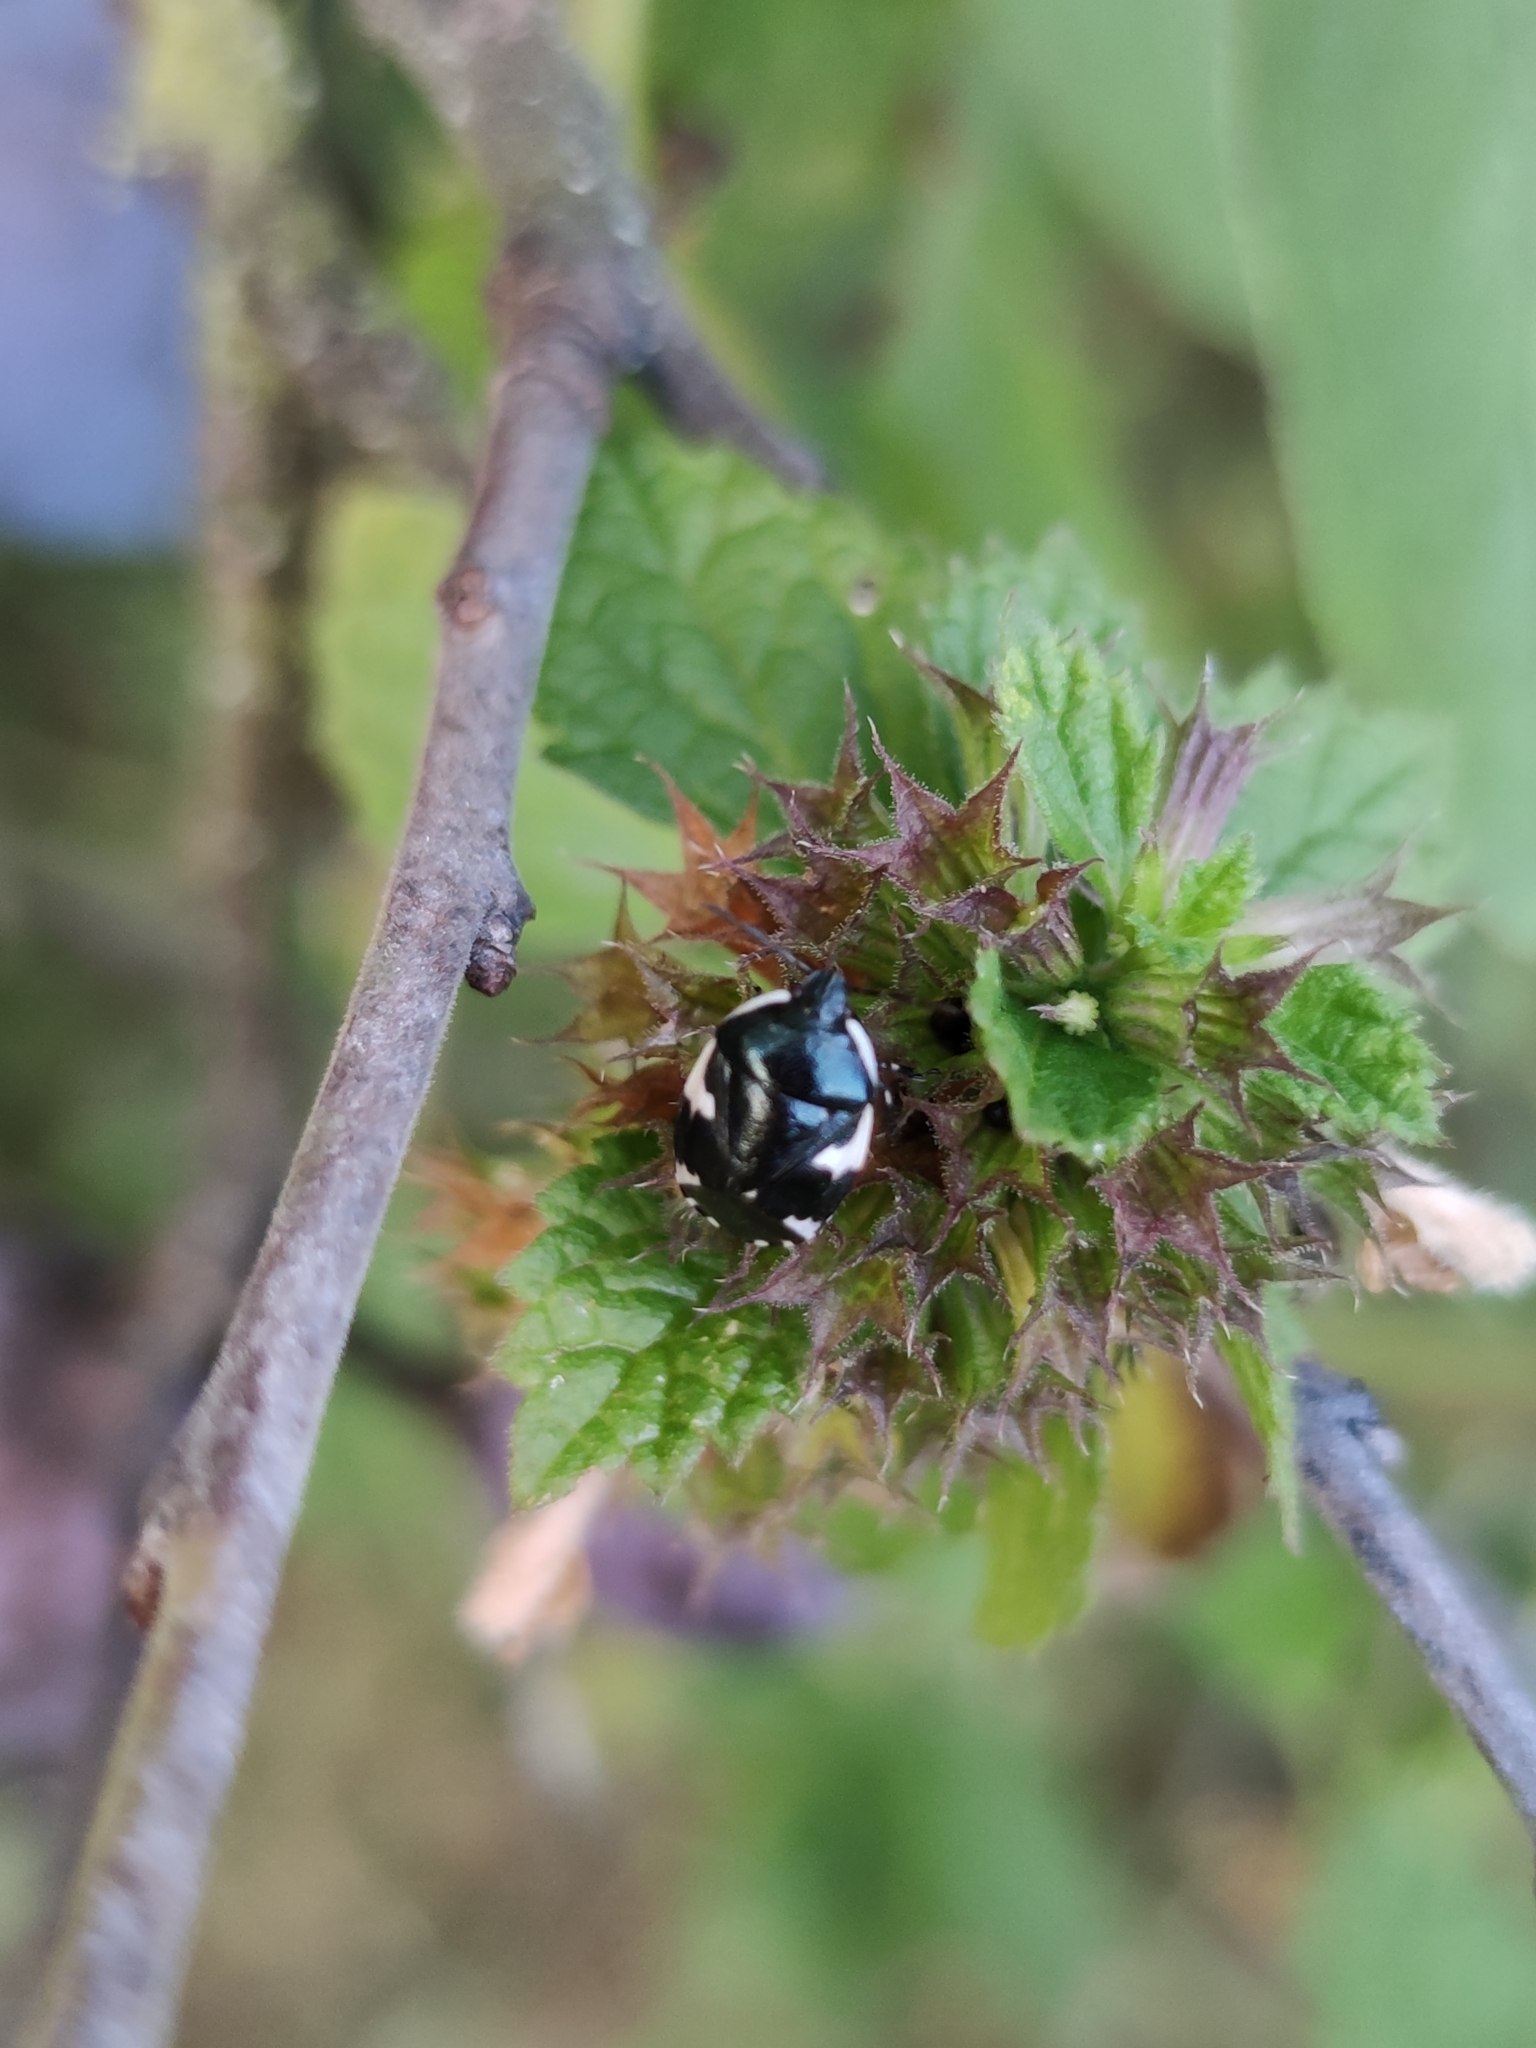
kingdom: Animalia
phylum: Arthropoda
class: Insecta
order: Hemiptera
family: Cydnidae
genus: Tritomegas
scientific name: Tritomegas sexmaculatus
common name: Rambur's pied shieldbug
